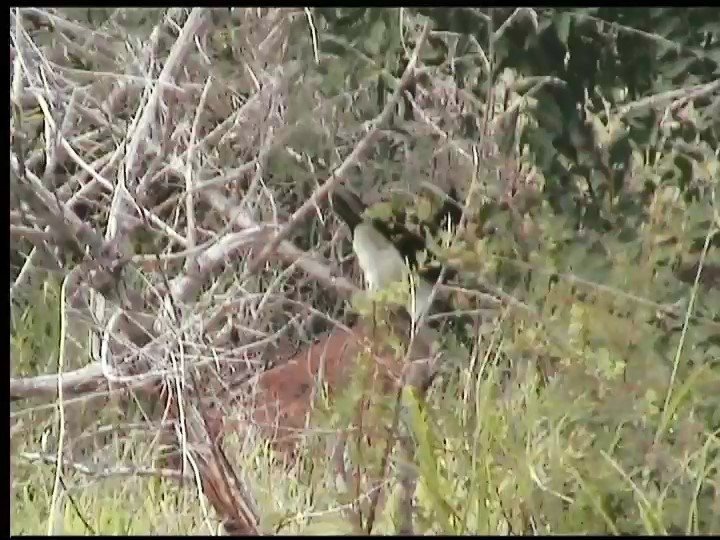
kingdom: Animalia
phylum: Chordata
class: Aves
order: Cuculiformes
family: Cuculidae
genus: Clamator
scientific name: Clamator jacobinus
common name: Jacobin cuckoo
